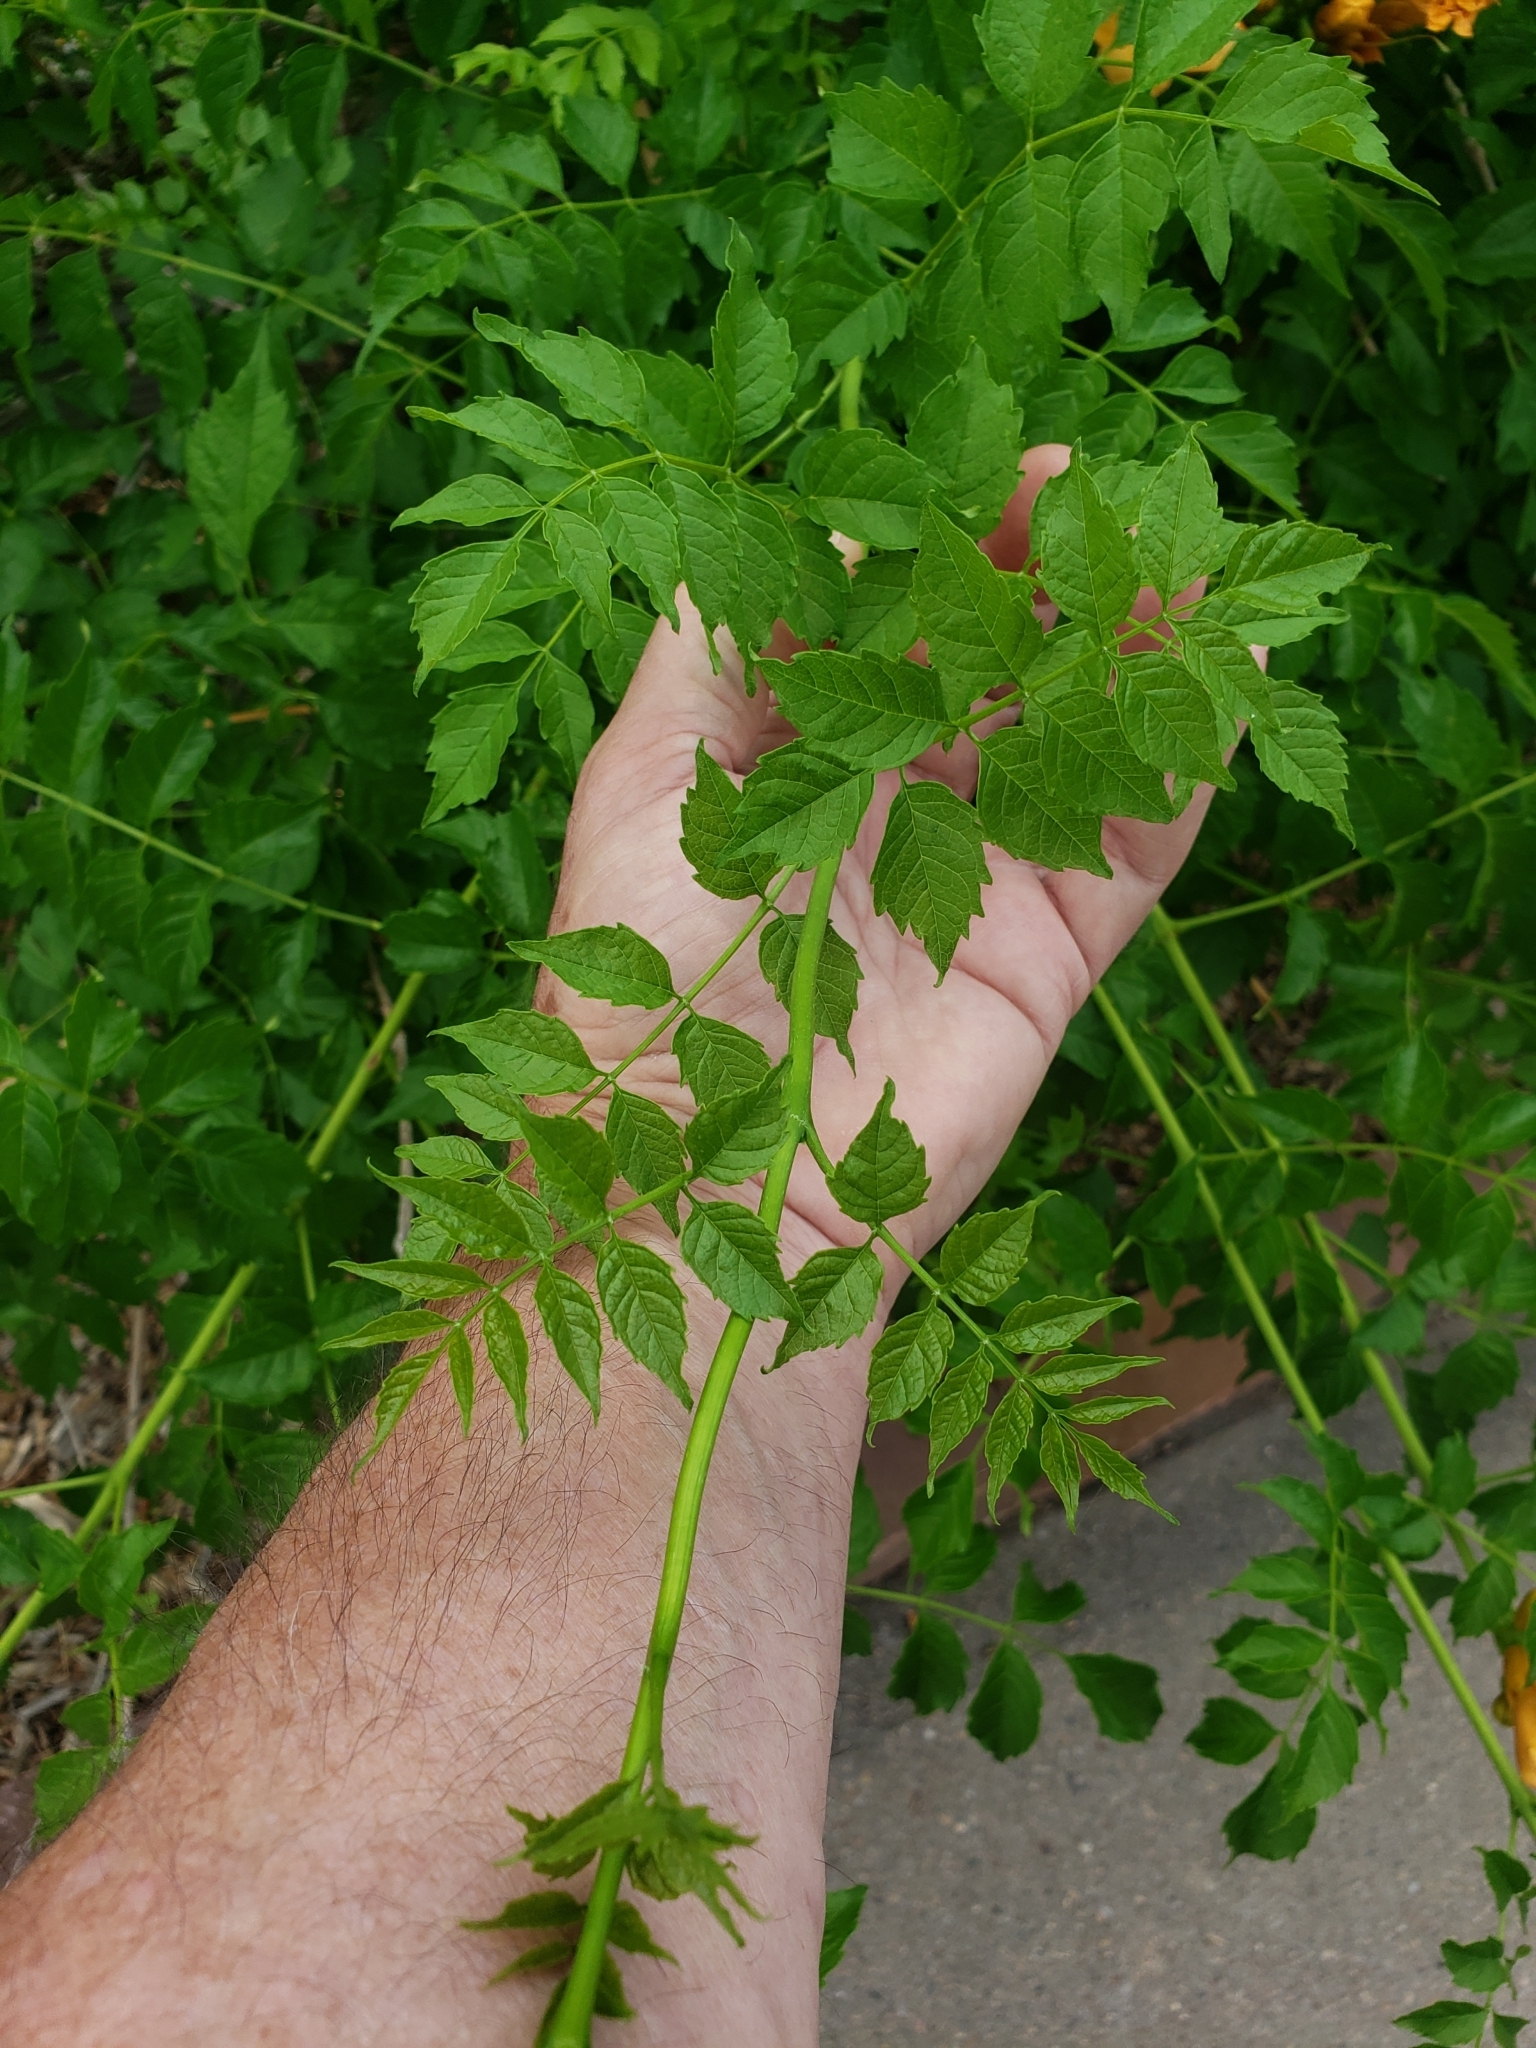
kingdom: Plantae
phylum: Tracheophyta
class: Magnoliopsida
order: Lamiales
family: Bignoniaceae
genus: Campsis
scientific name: Campsis radicans
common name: Trumpet-creeper
